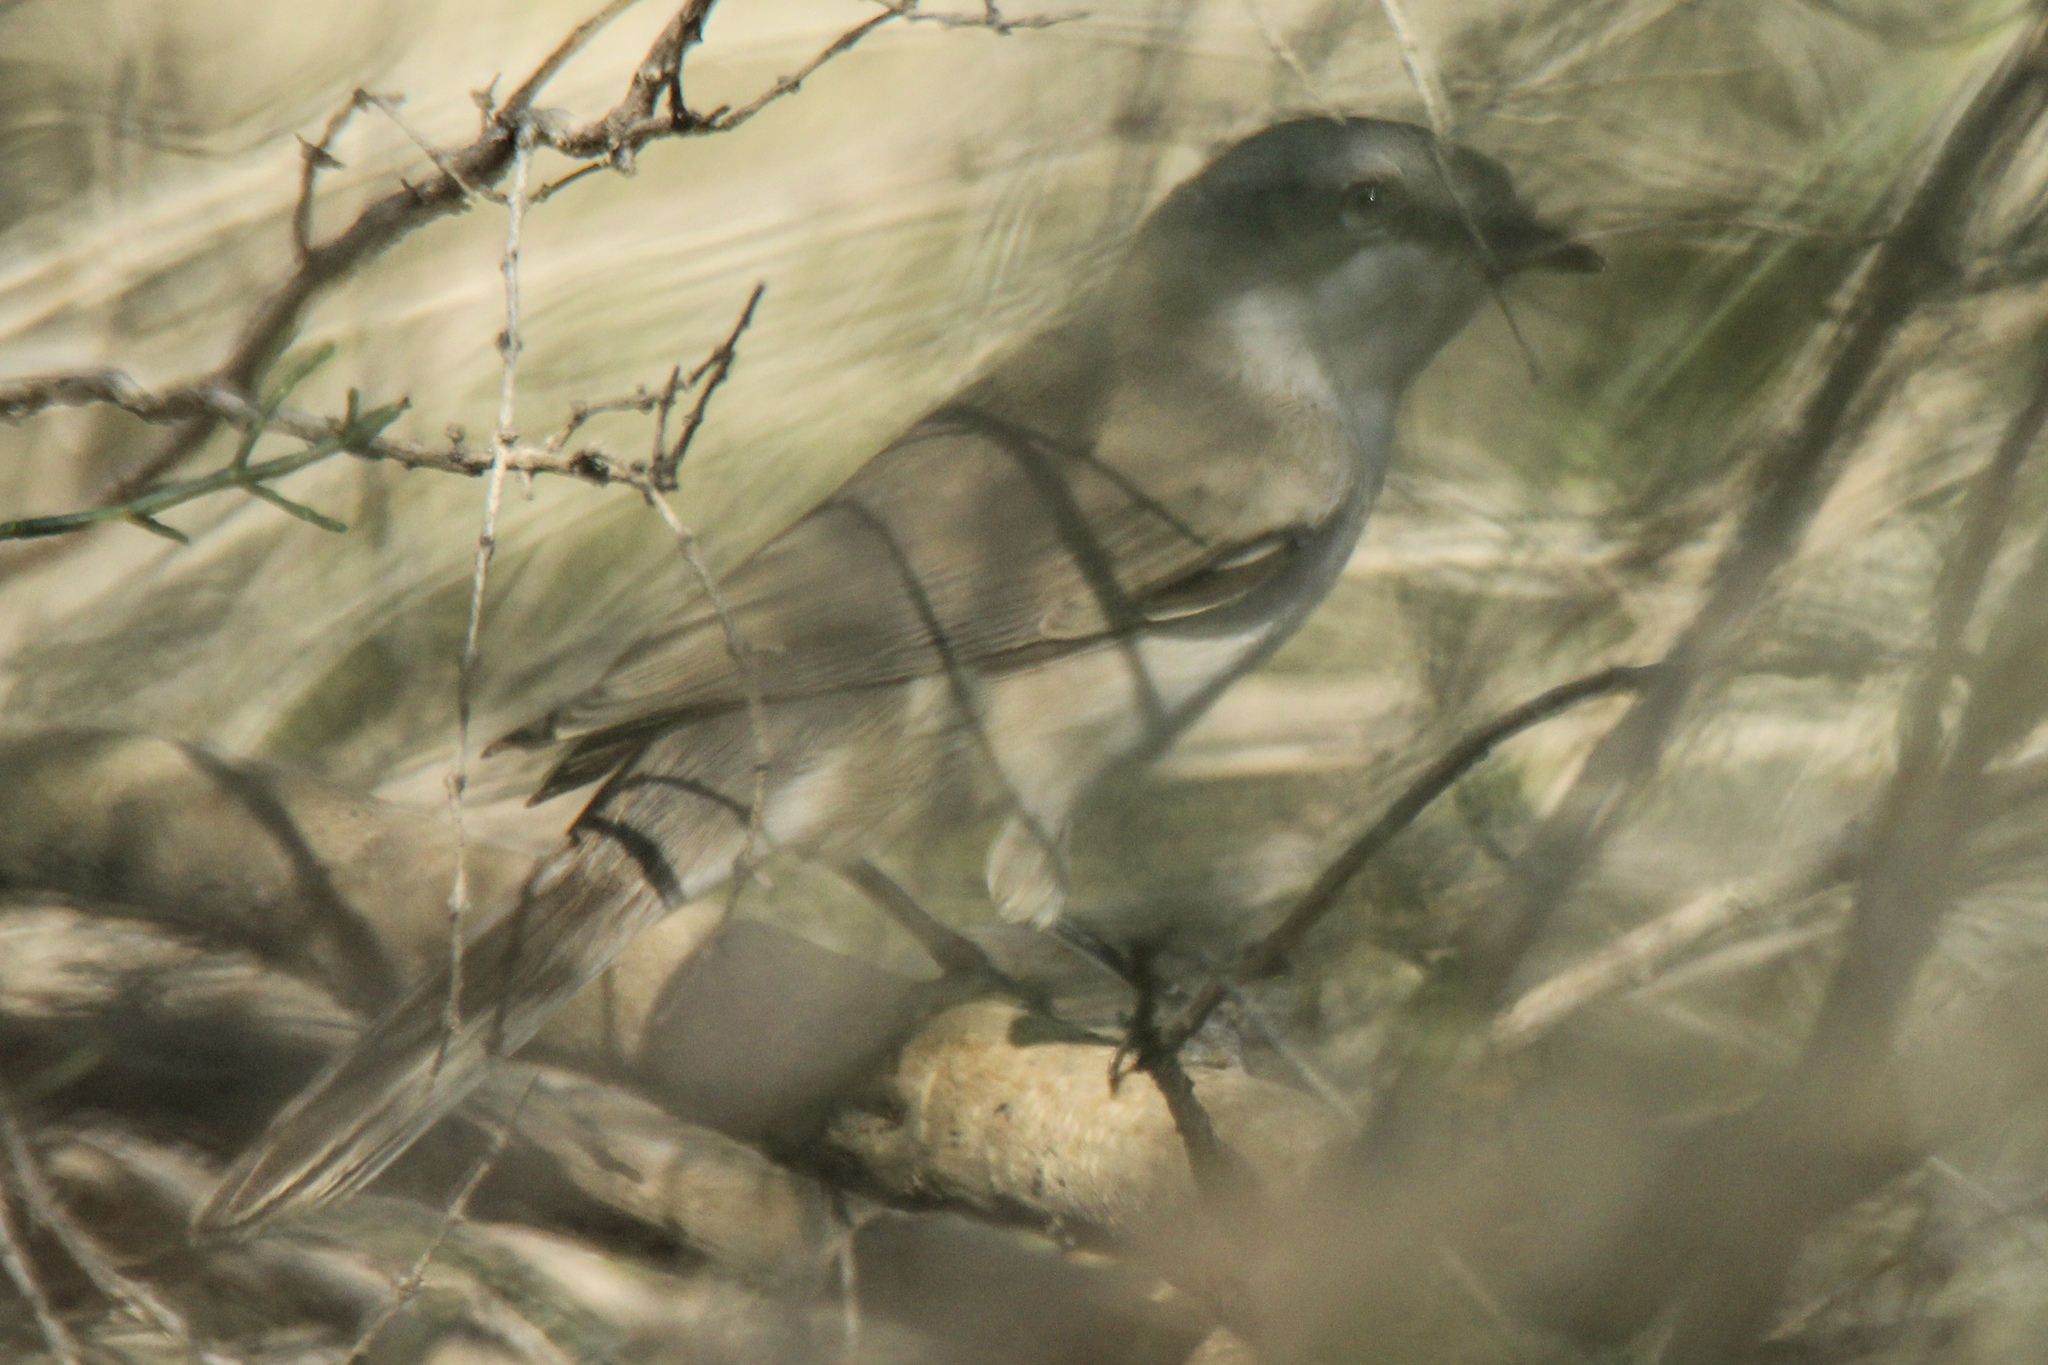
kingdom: Animalia
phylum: Chordata
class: Aves
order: Passeriformes
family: Sylviidae
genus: Sylvia
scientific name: Sylvia curruca
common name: Lesser whitethroat
